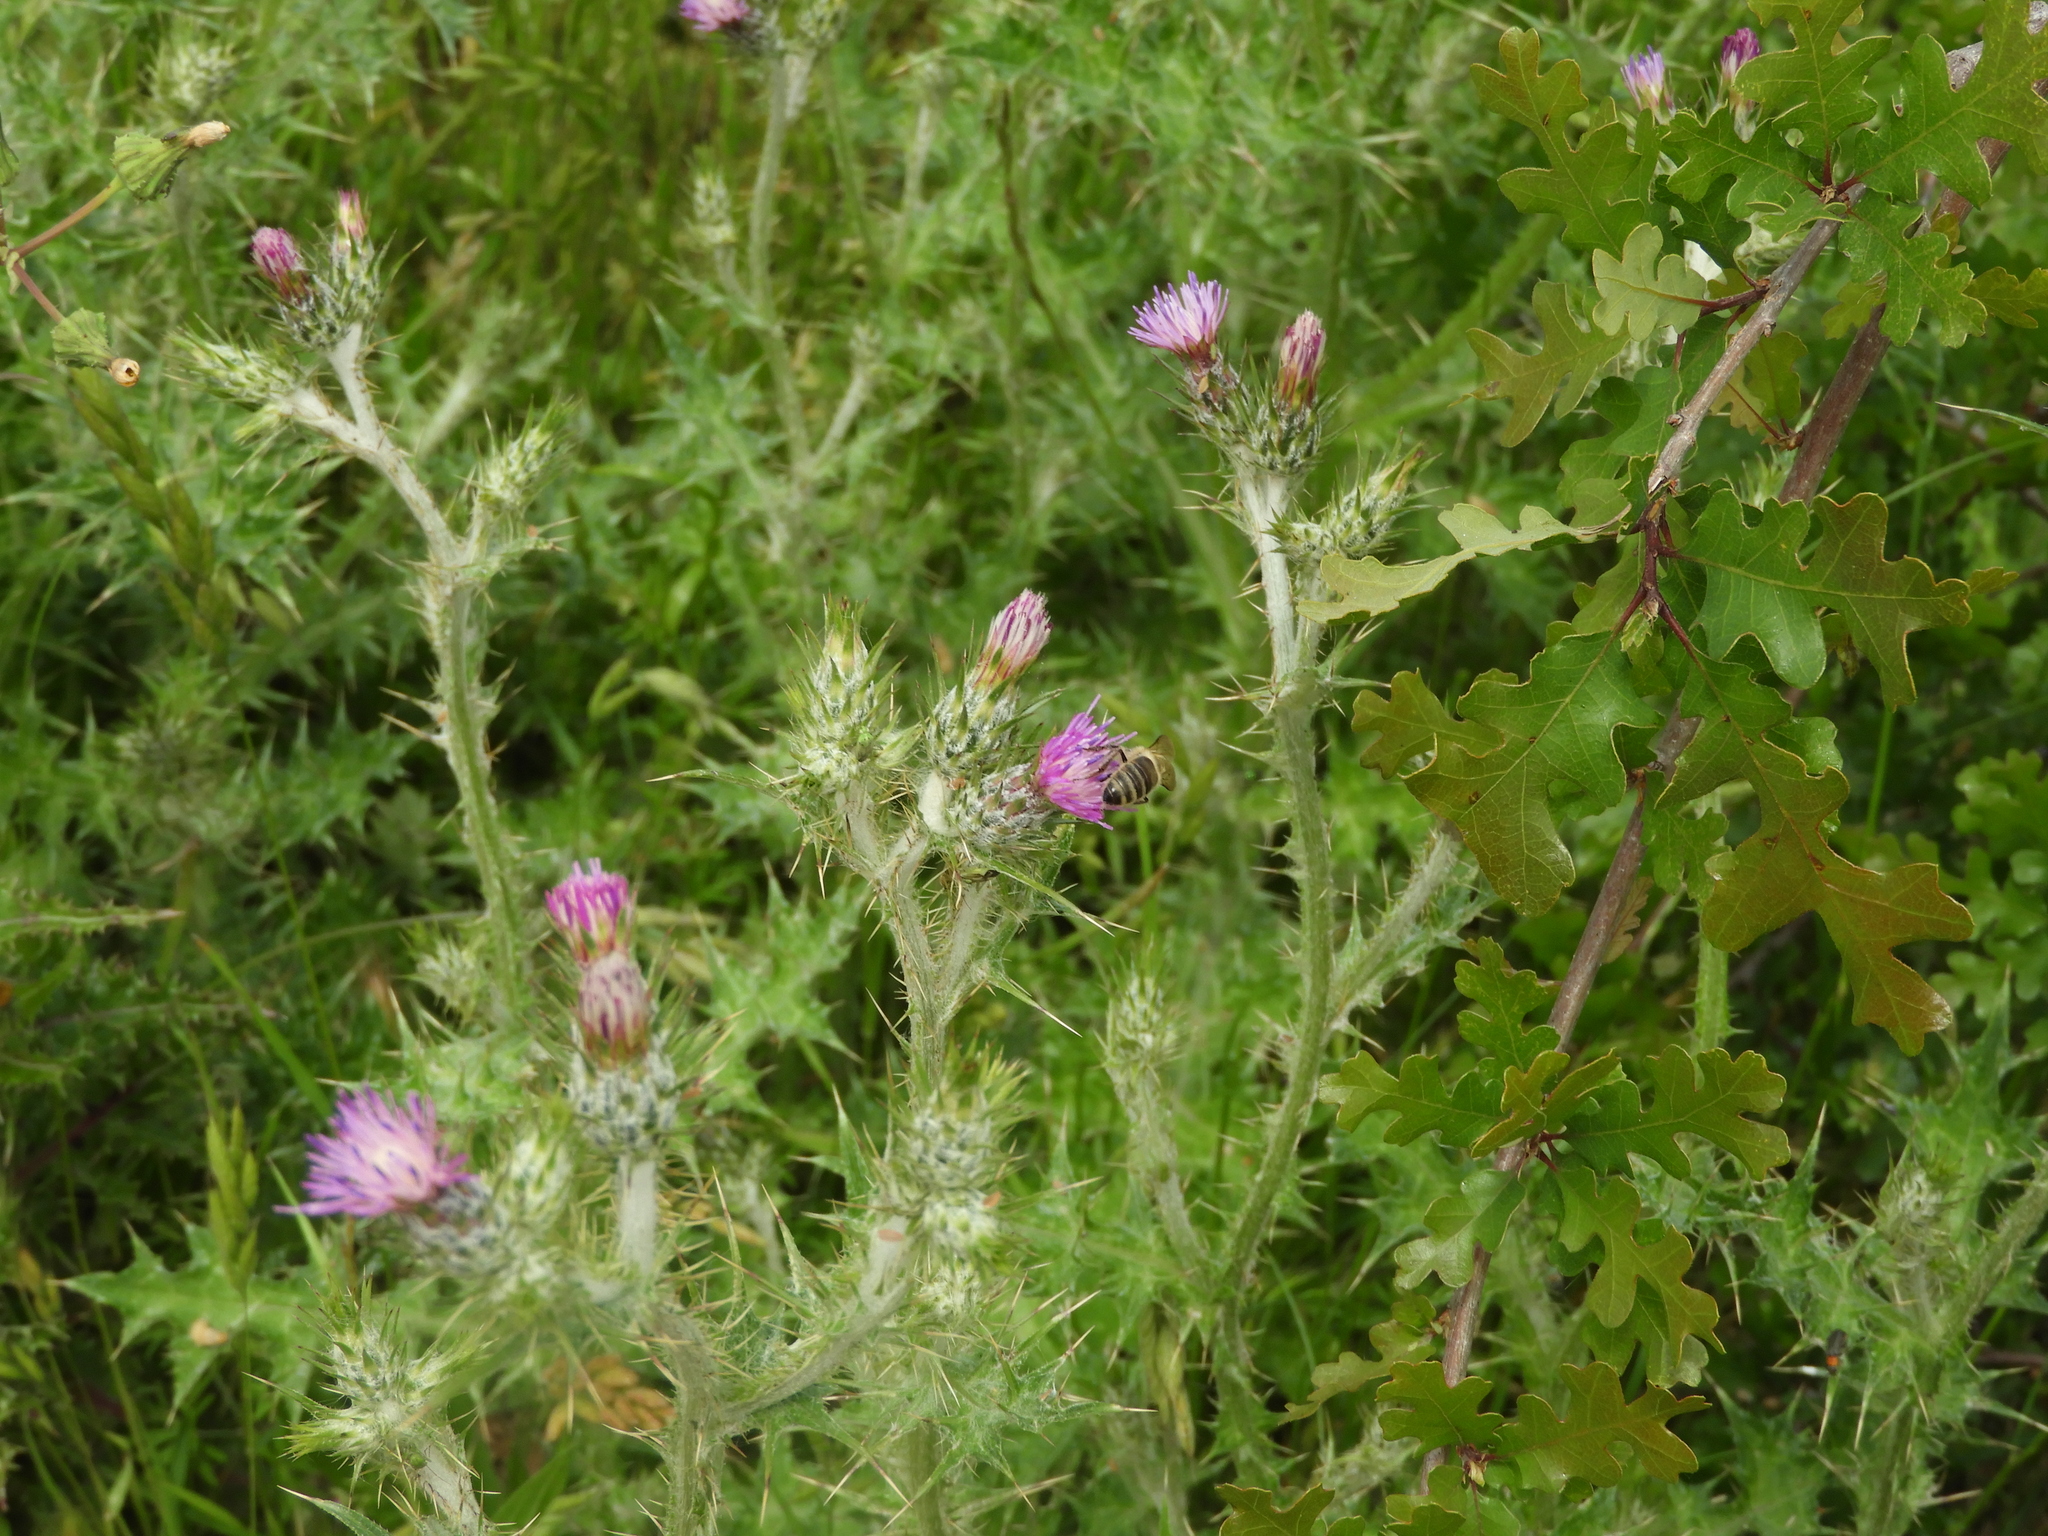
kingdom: Plantae
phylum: Tracheophyta
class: Magnoliopsida
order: Asterales
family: Asteraceae
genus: Carduus
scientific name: Carduus pycnocephalus
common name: Plymouth thistle
